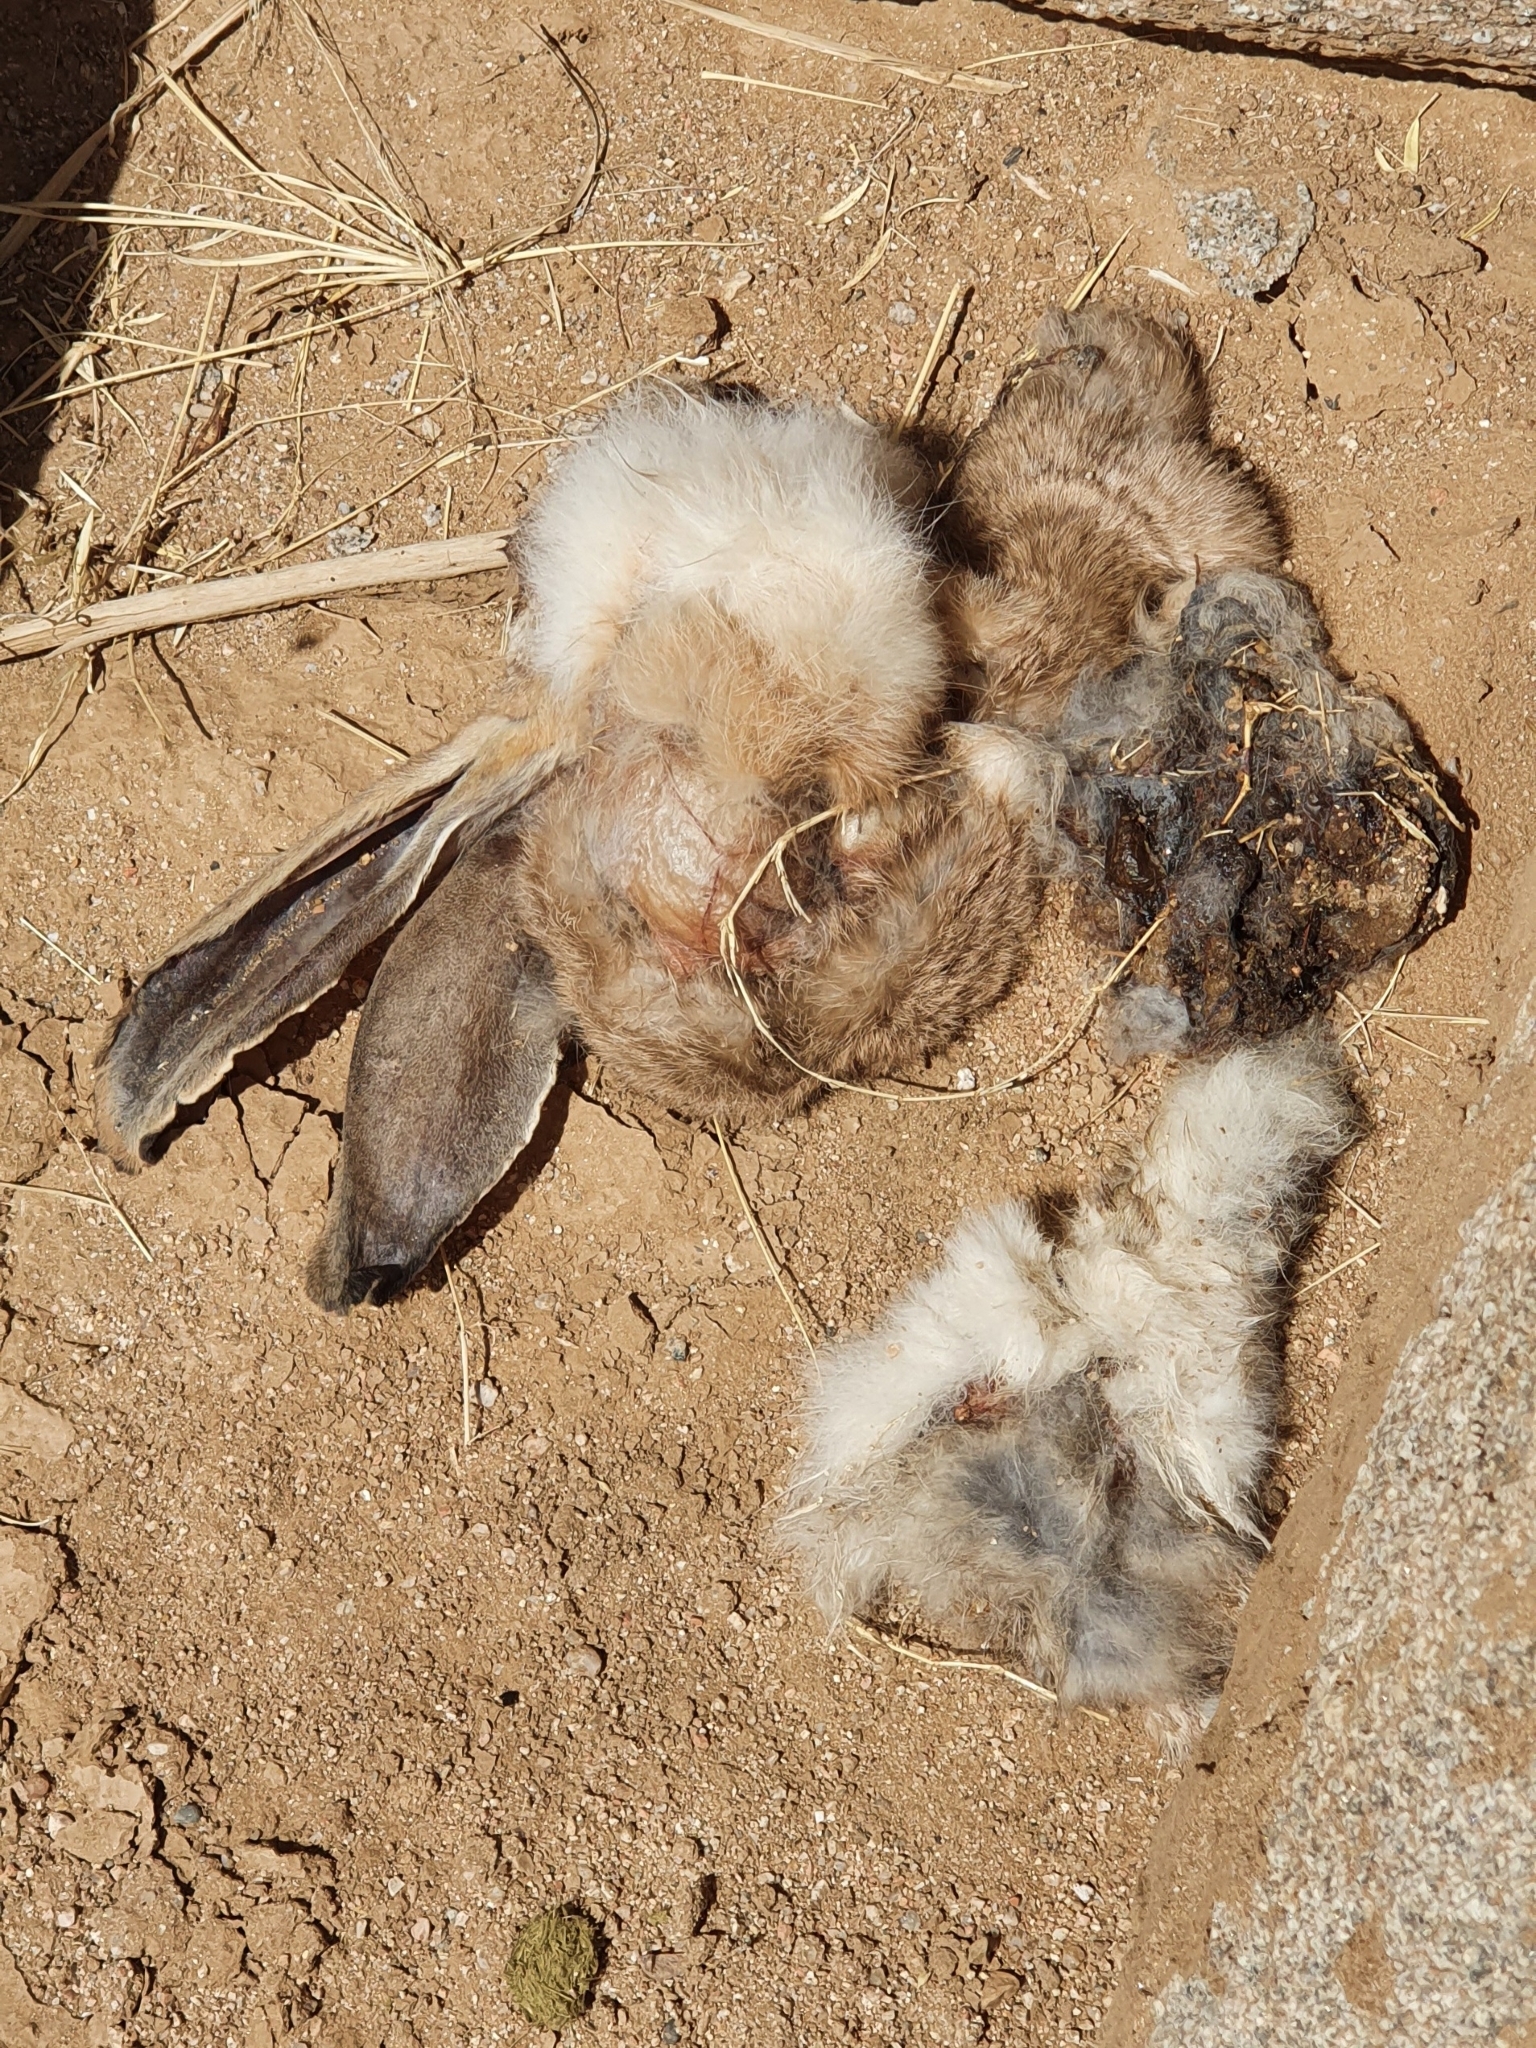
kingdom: Animalia
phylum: Chordata
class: Mammalia
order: Lagomorpha
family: Leporidae
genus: Lepus
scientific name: Lepus capensis
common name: Cape hare
